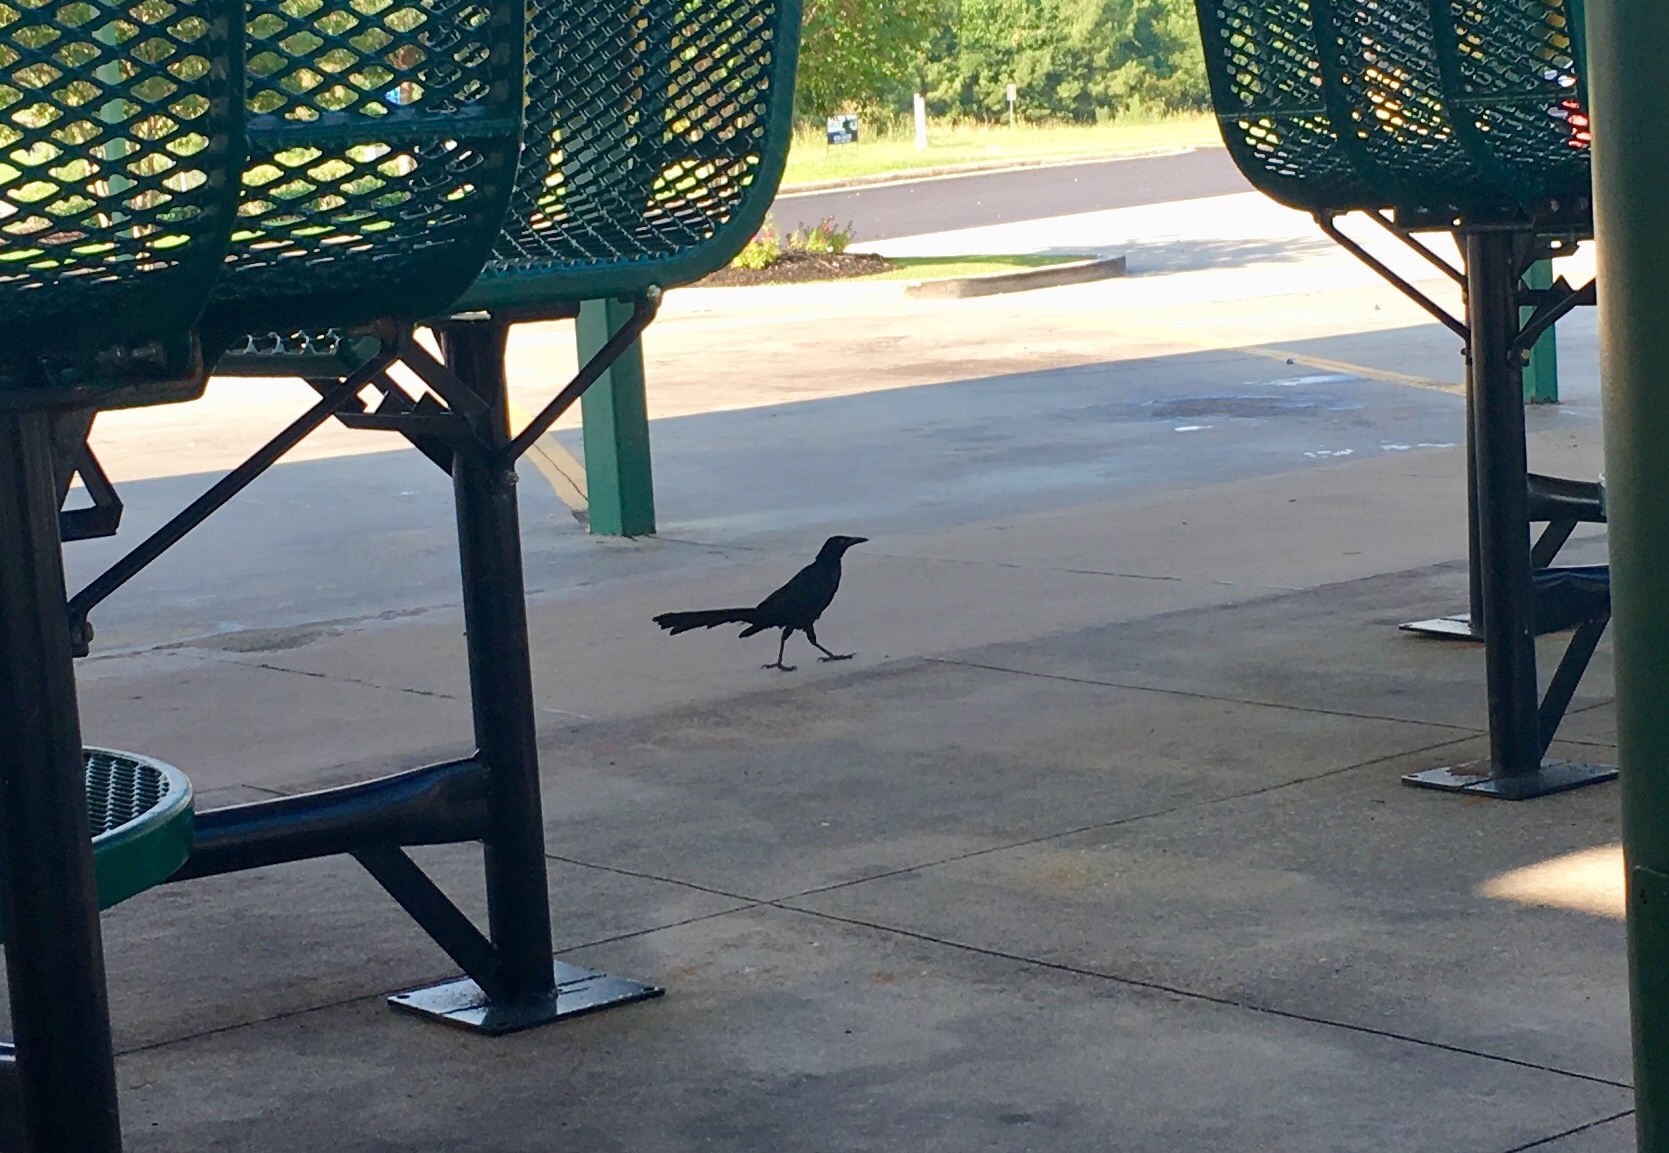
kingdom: Animalia
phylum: Chordata
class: Aves
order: Passeriformes
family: Icteridae
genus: Quiscalus
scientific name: Quiscalus mexicanus
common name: Great-tailed grackle
